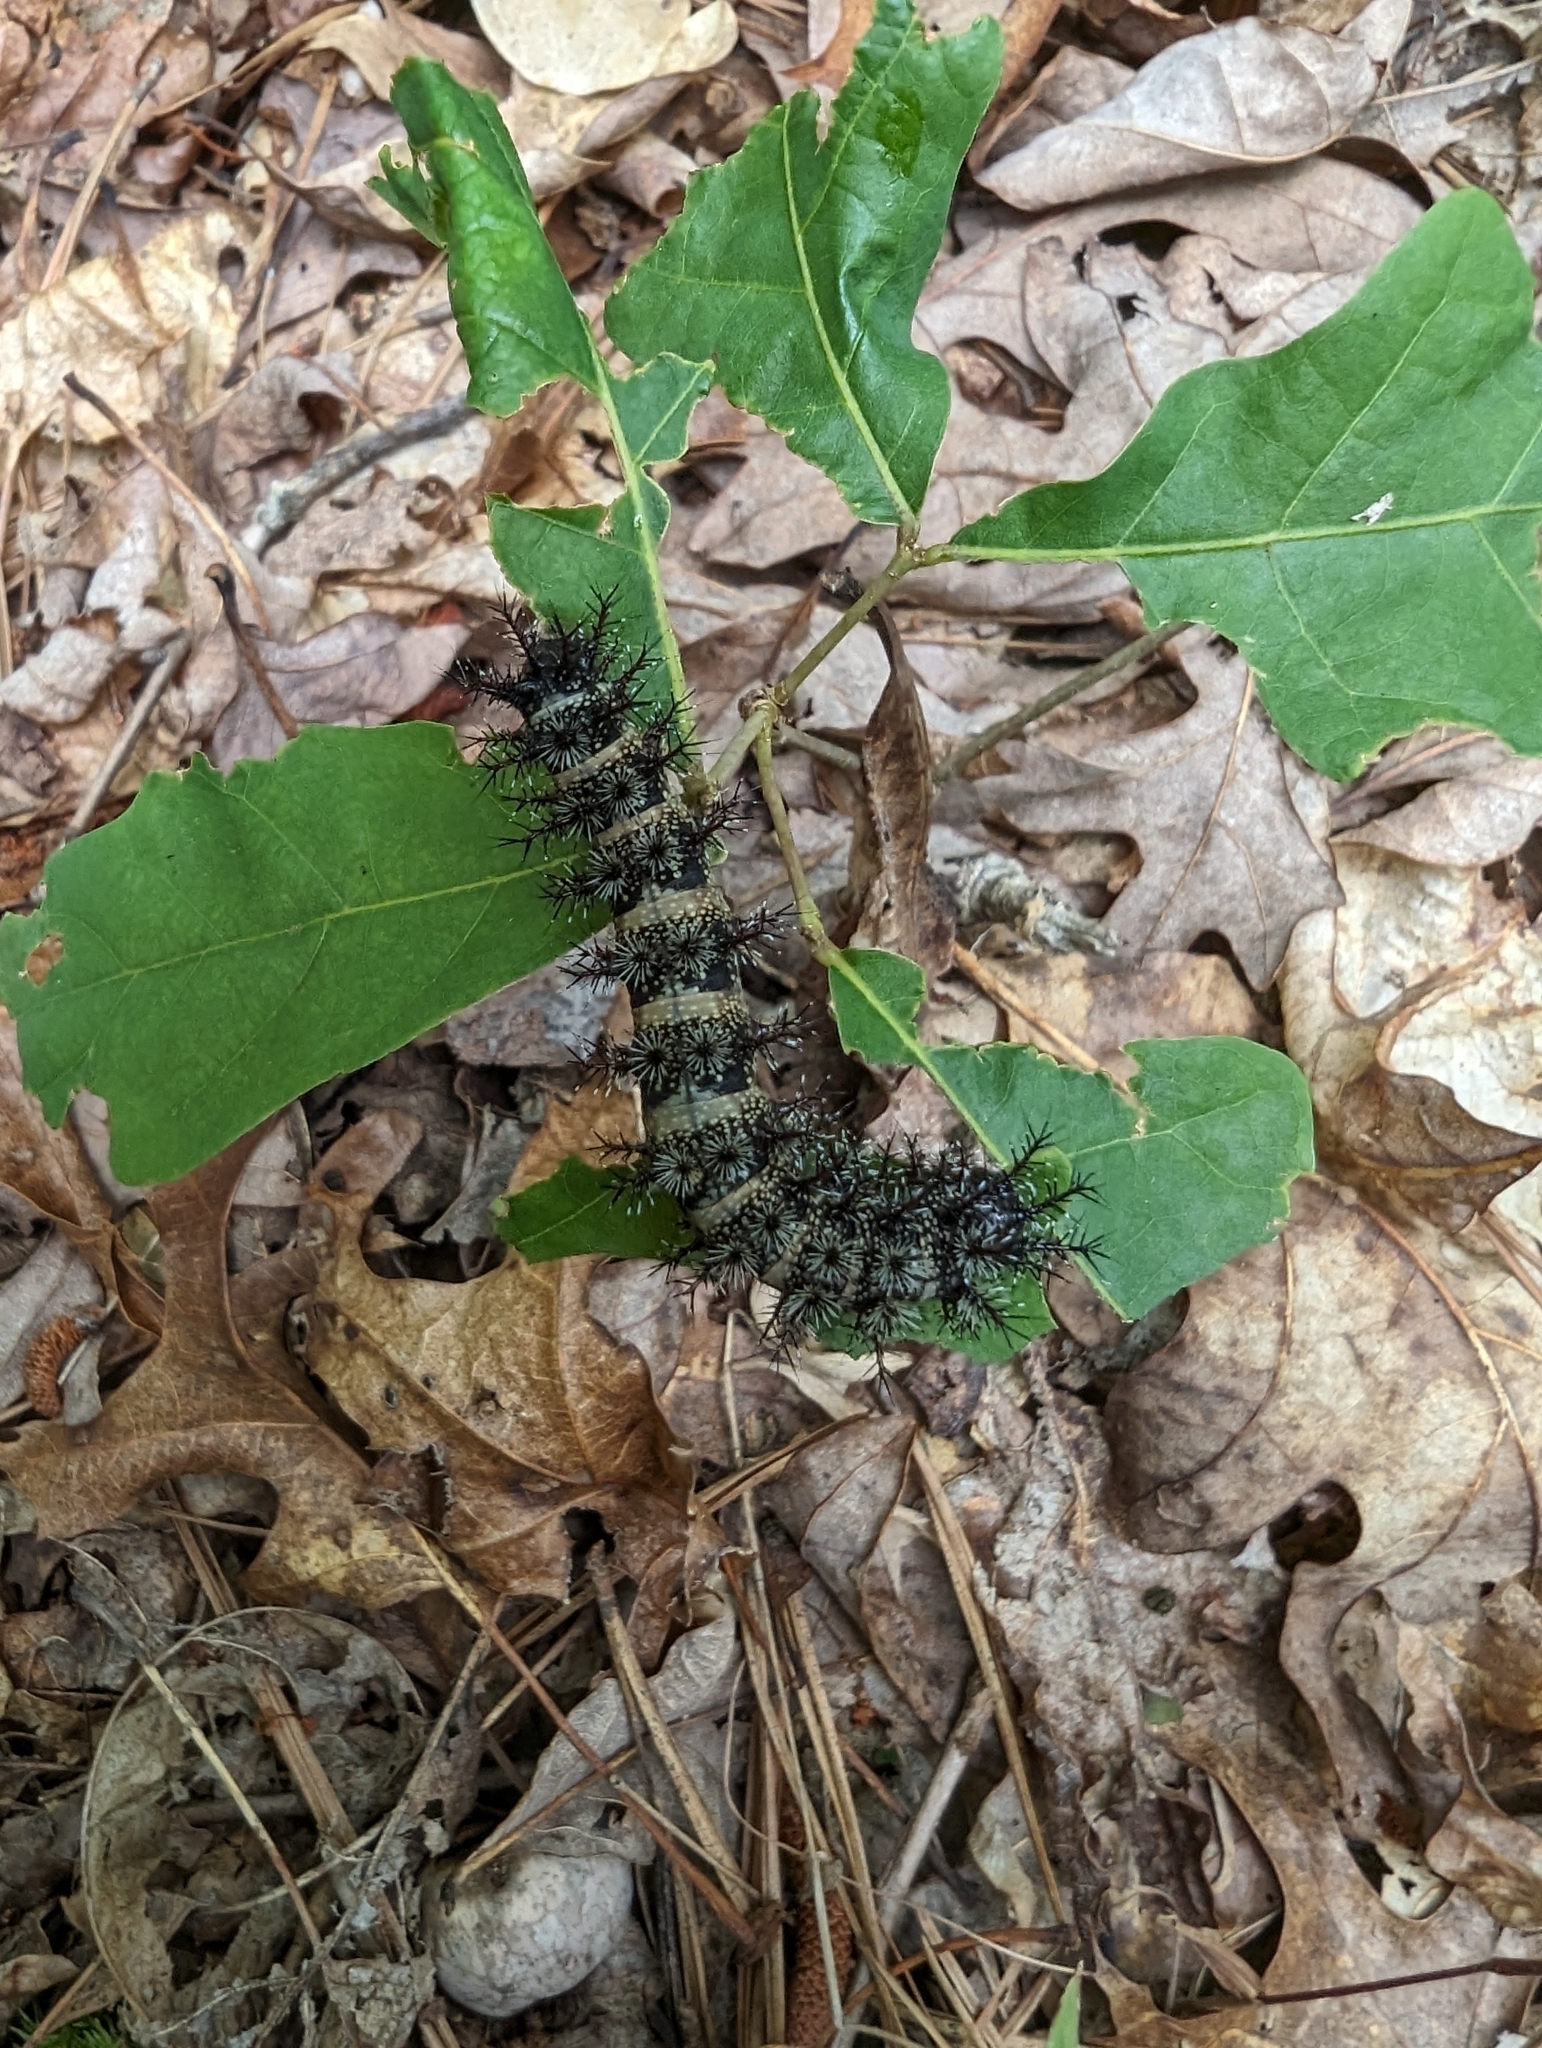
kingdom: Animalia
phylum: Arthropoda
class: Insecta
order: Lepidoptera
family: Saturniidae
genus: Hemileuca
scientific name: Hemileuca maia
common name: Eastern buckmoth
